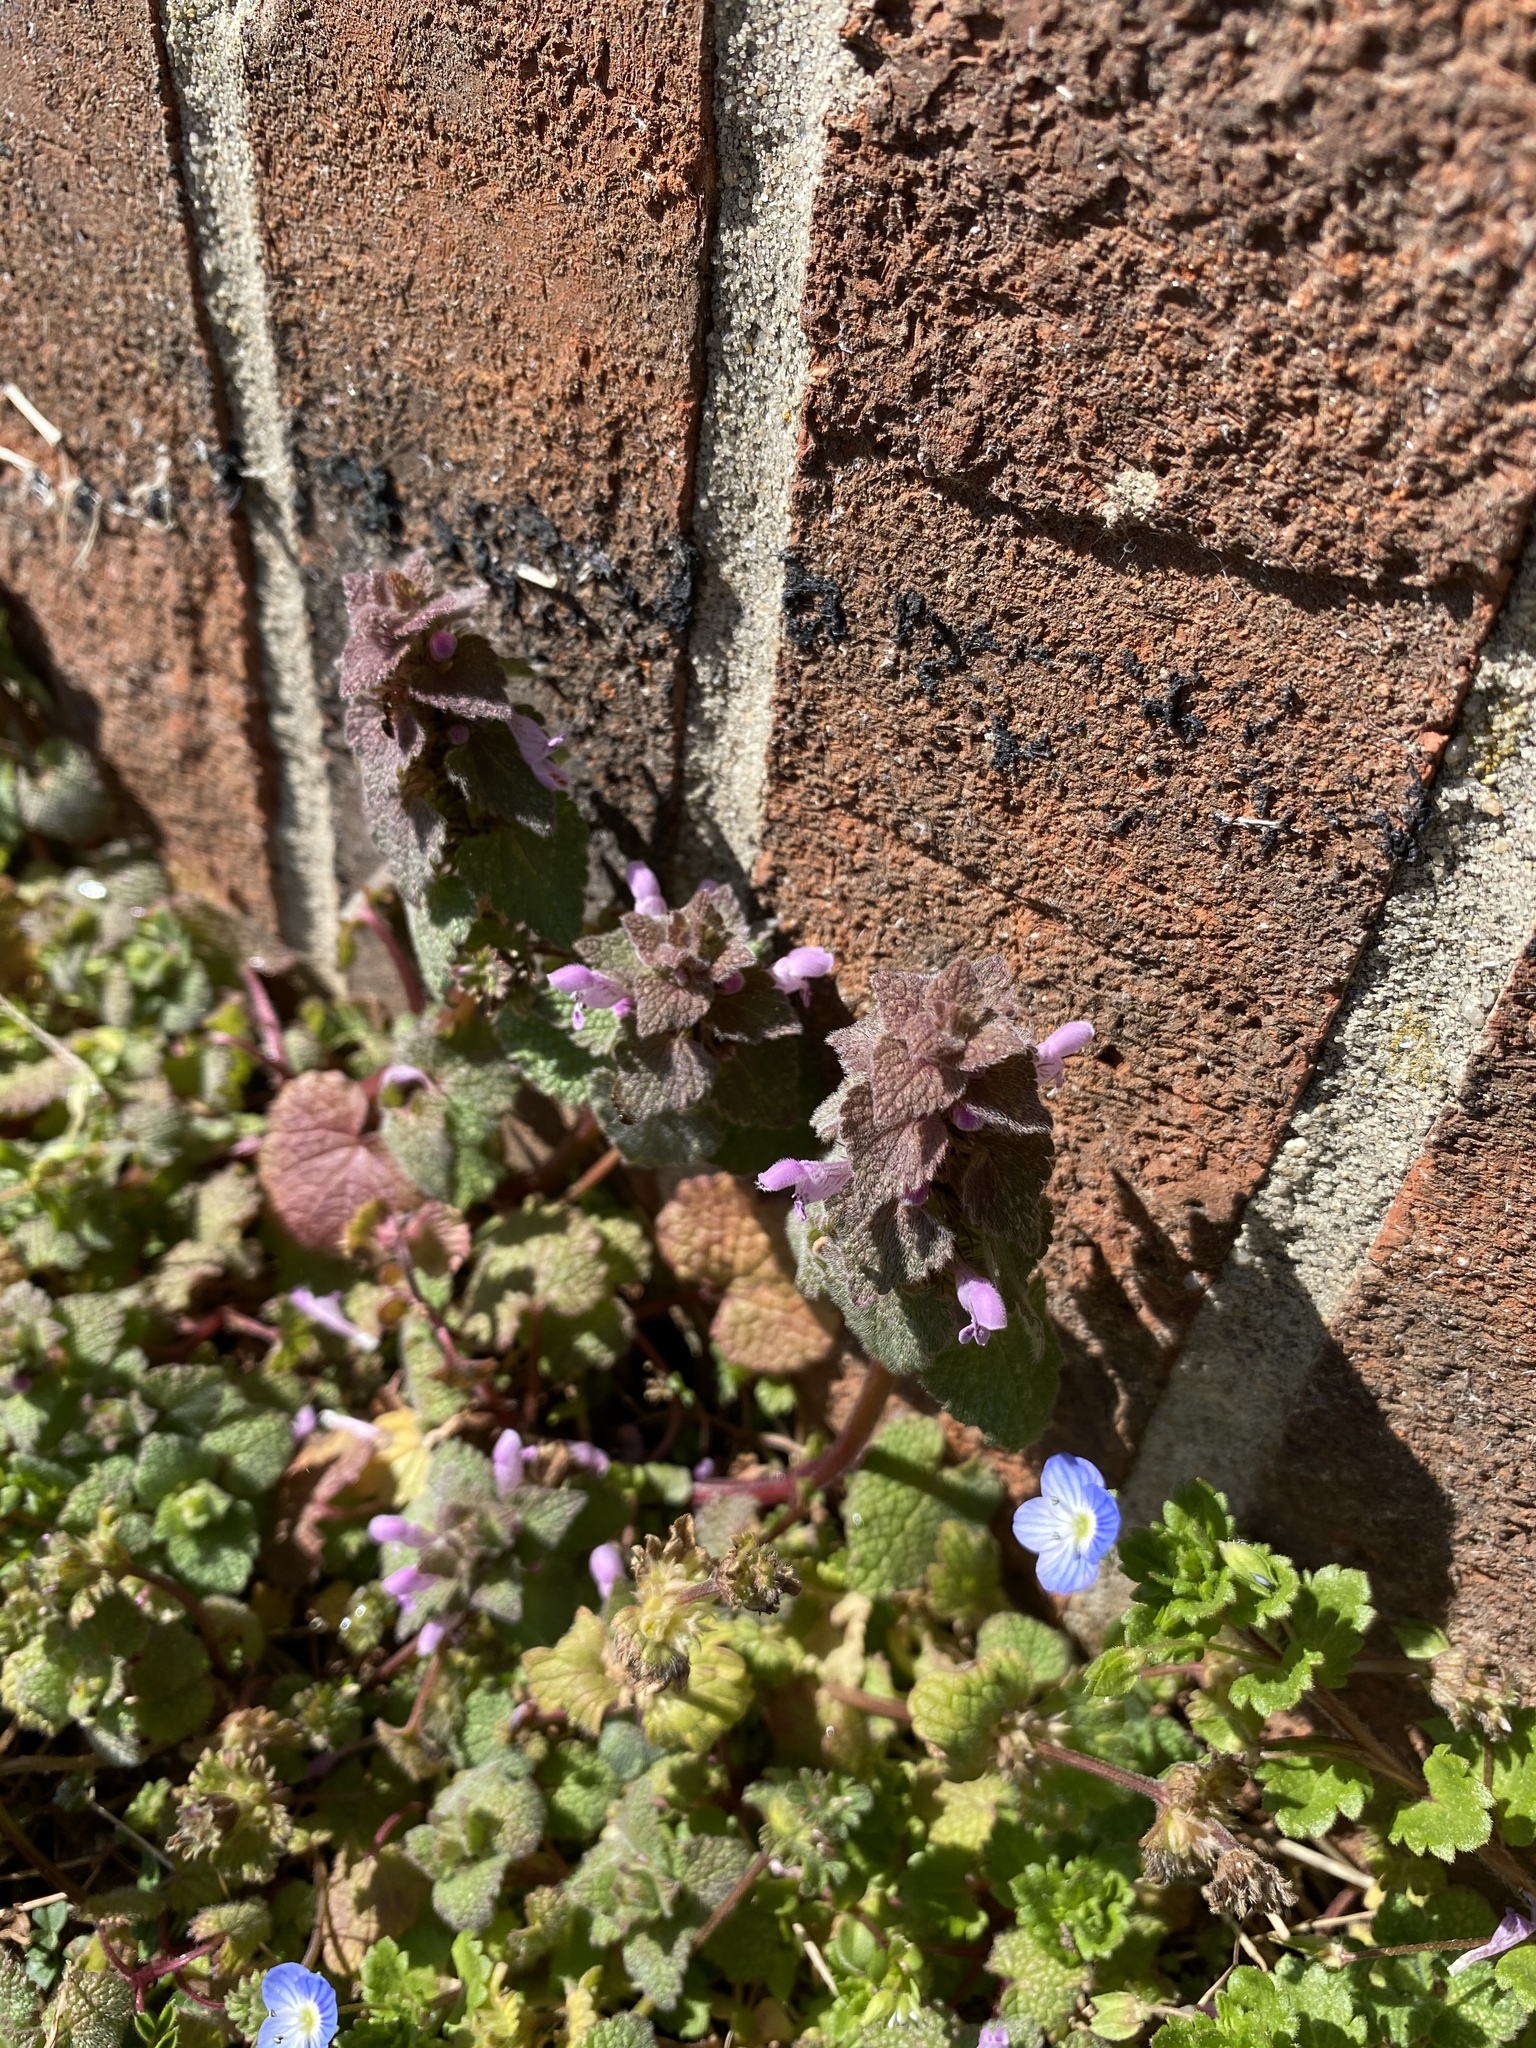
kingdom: Plantae
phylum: Tracheophyta
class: Magnoliopsida
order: Lamiales
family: Lamiaceae
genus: Lamium
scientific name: Lamium purpureum
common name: Red dead-nettle
